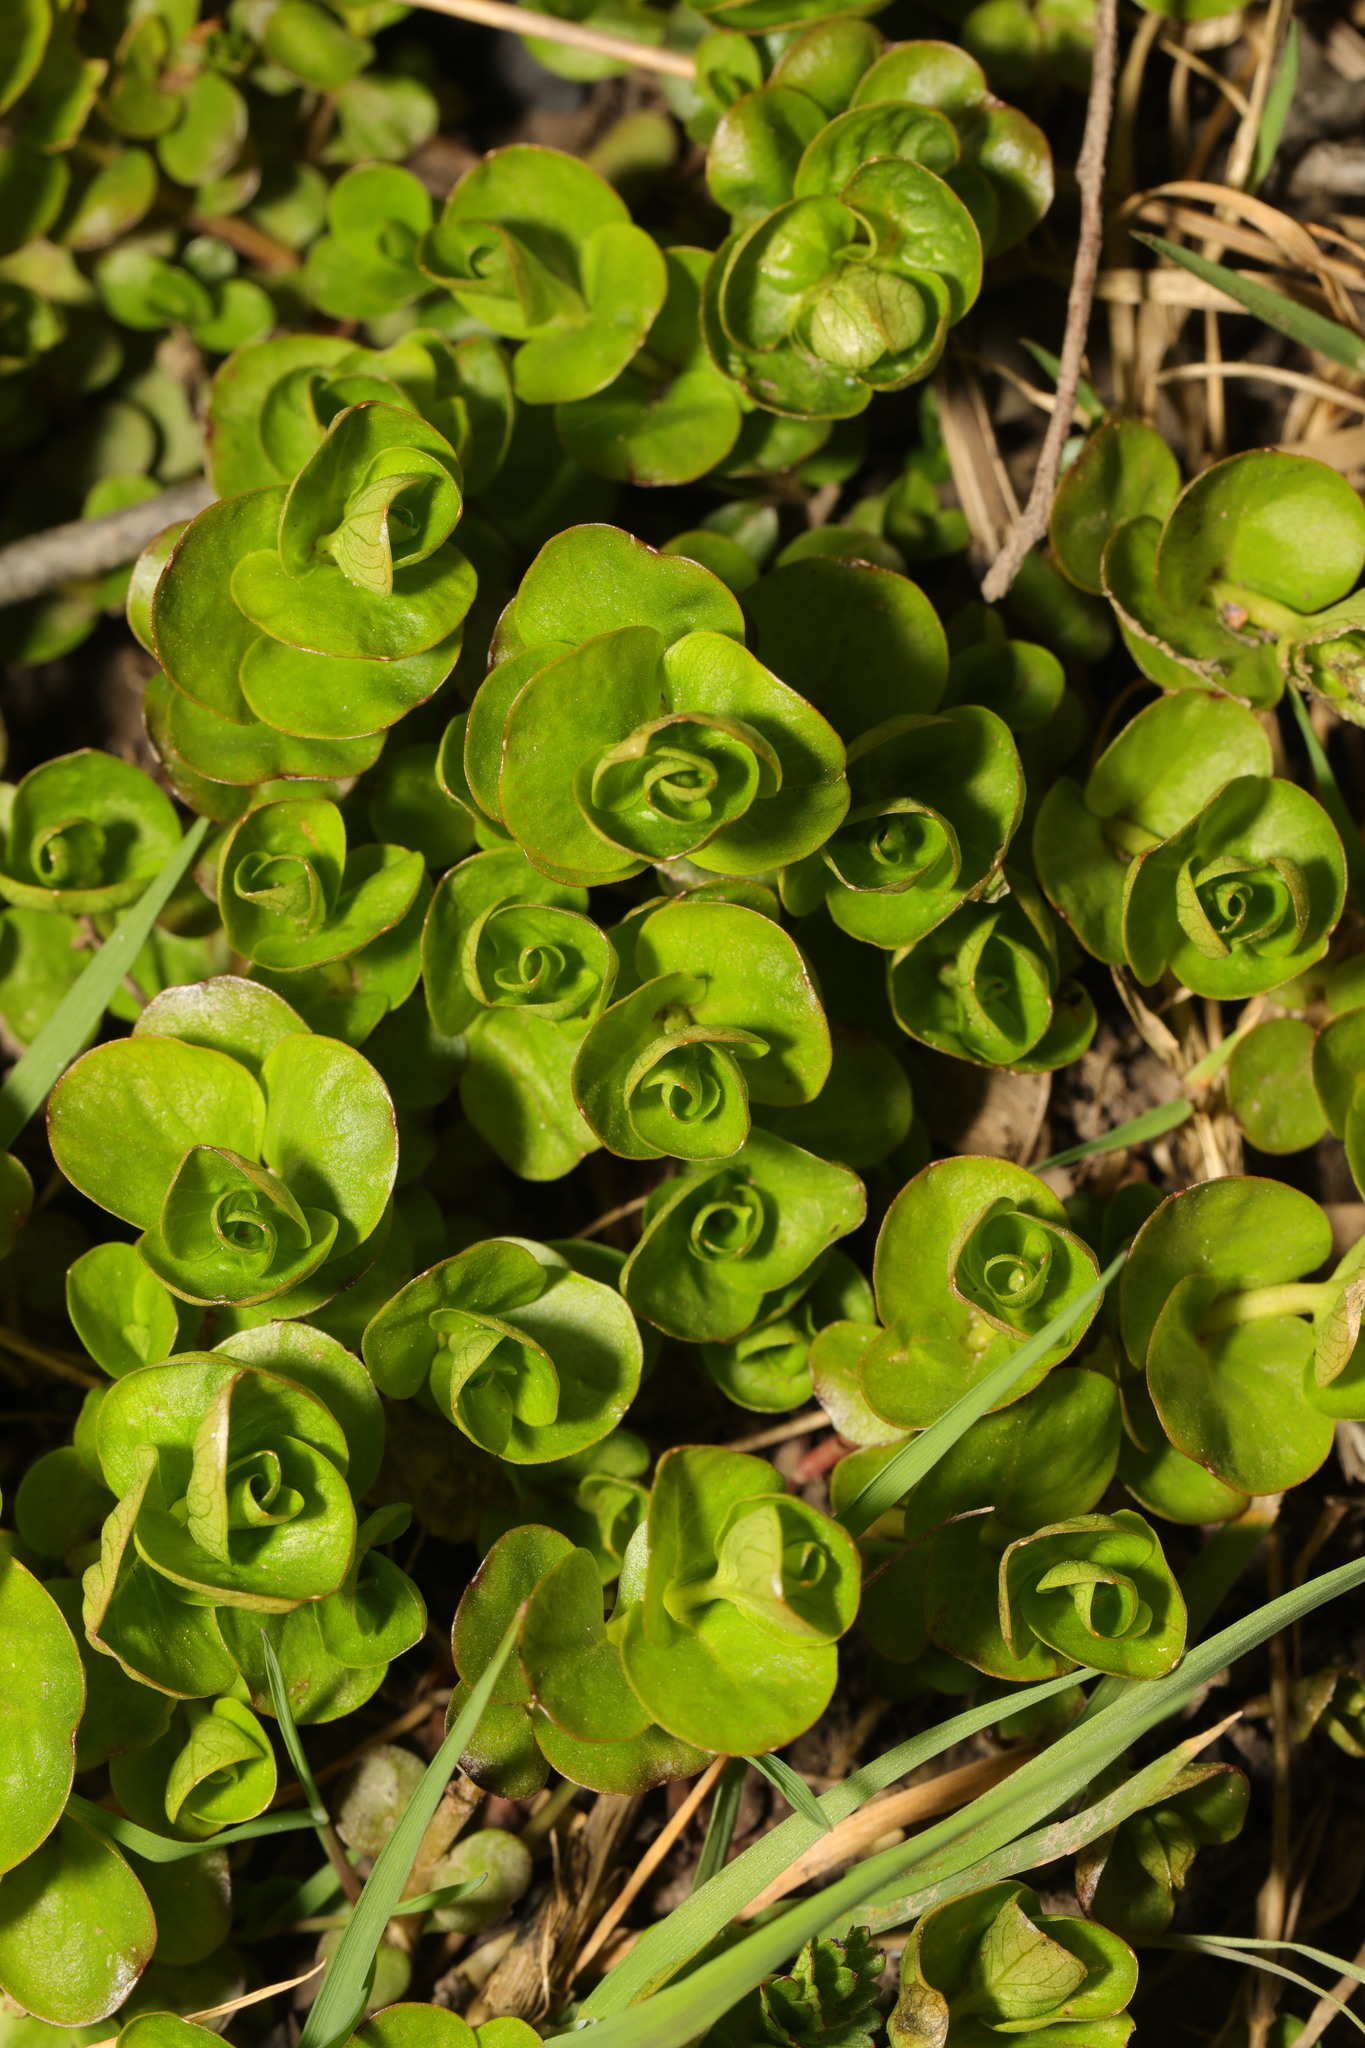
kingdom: Plantae
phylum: Tracheophyta
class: Magnoliopsida
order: Ericales
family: Primulaceae
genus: Lysimachia
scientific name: Lysimachia nummularia
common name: Moneywort
